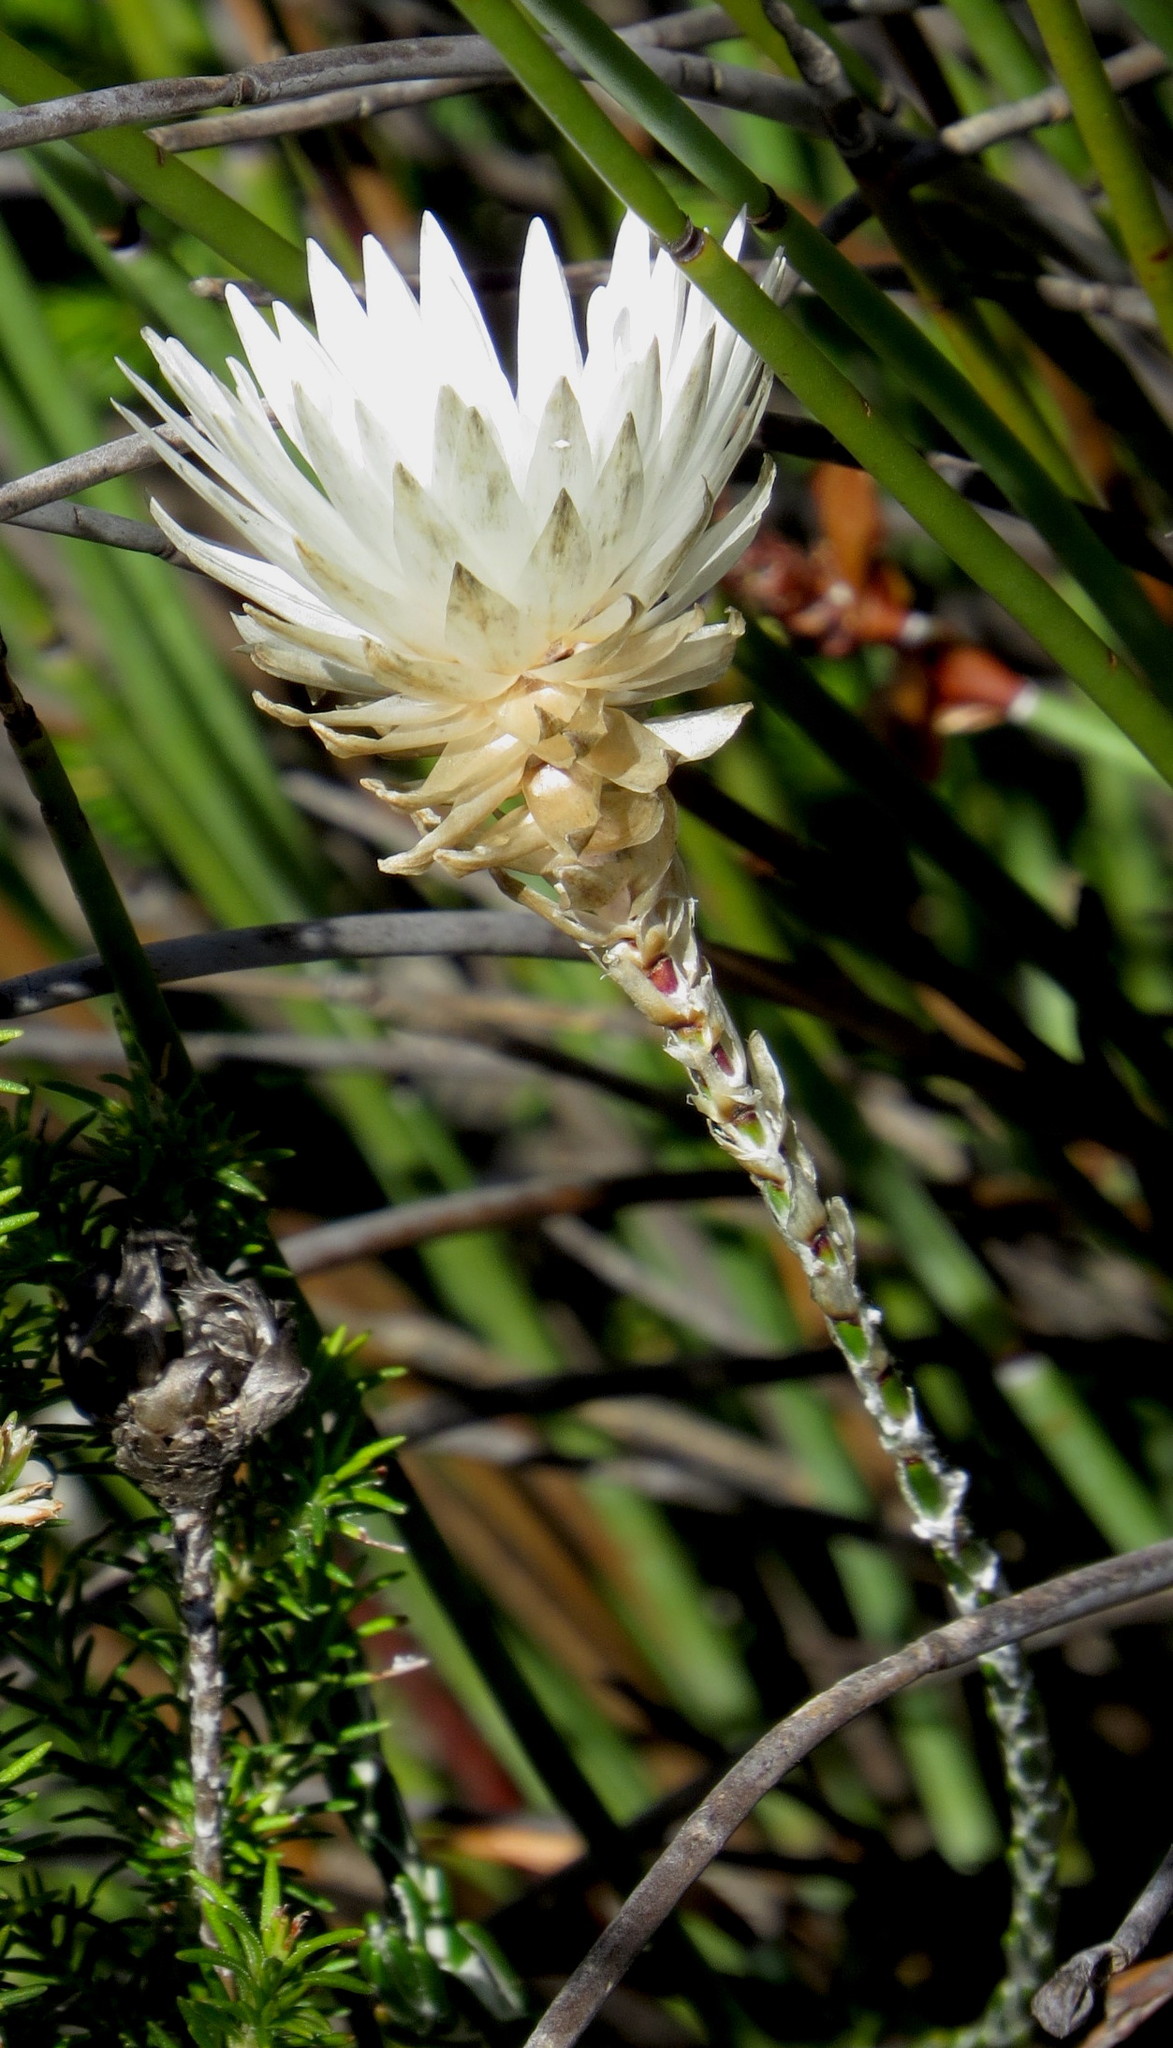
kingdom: Plantae
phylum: Tracheophyta
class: Magnoliopsida
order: Asterales
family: Asteraceae
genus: Edmondia
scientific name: Edmondia sesamoides
